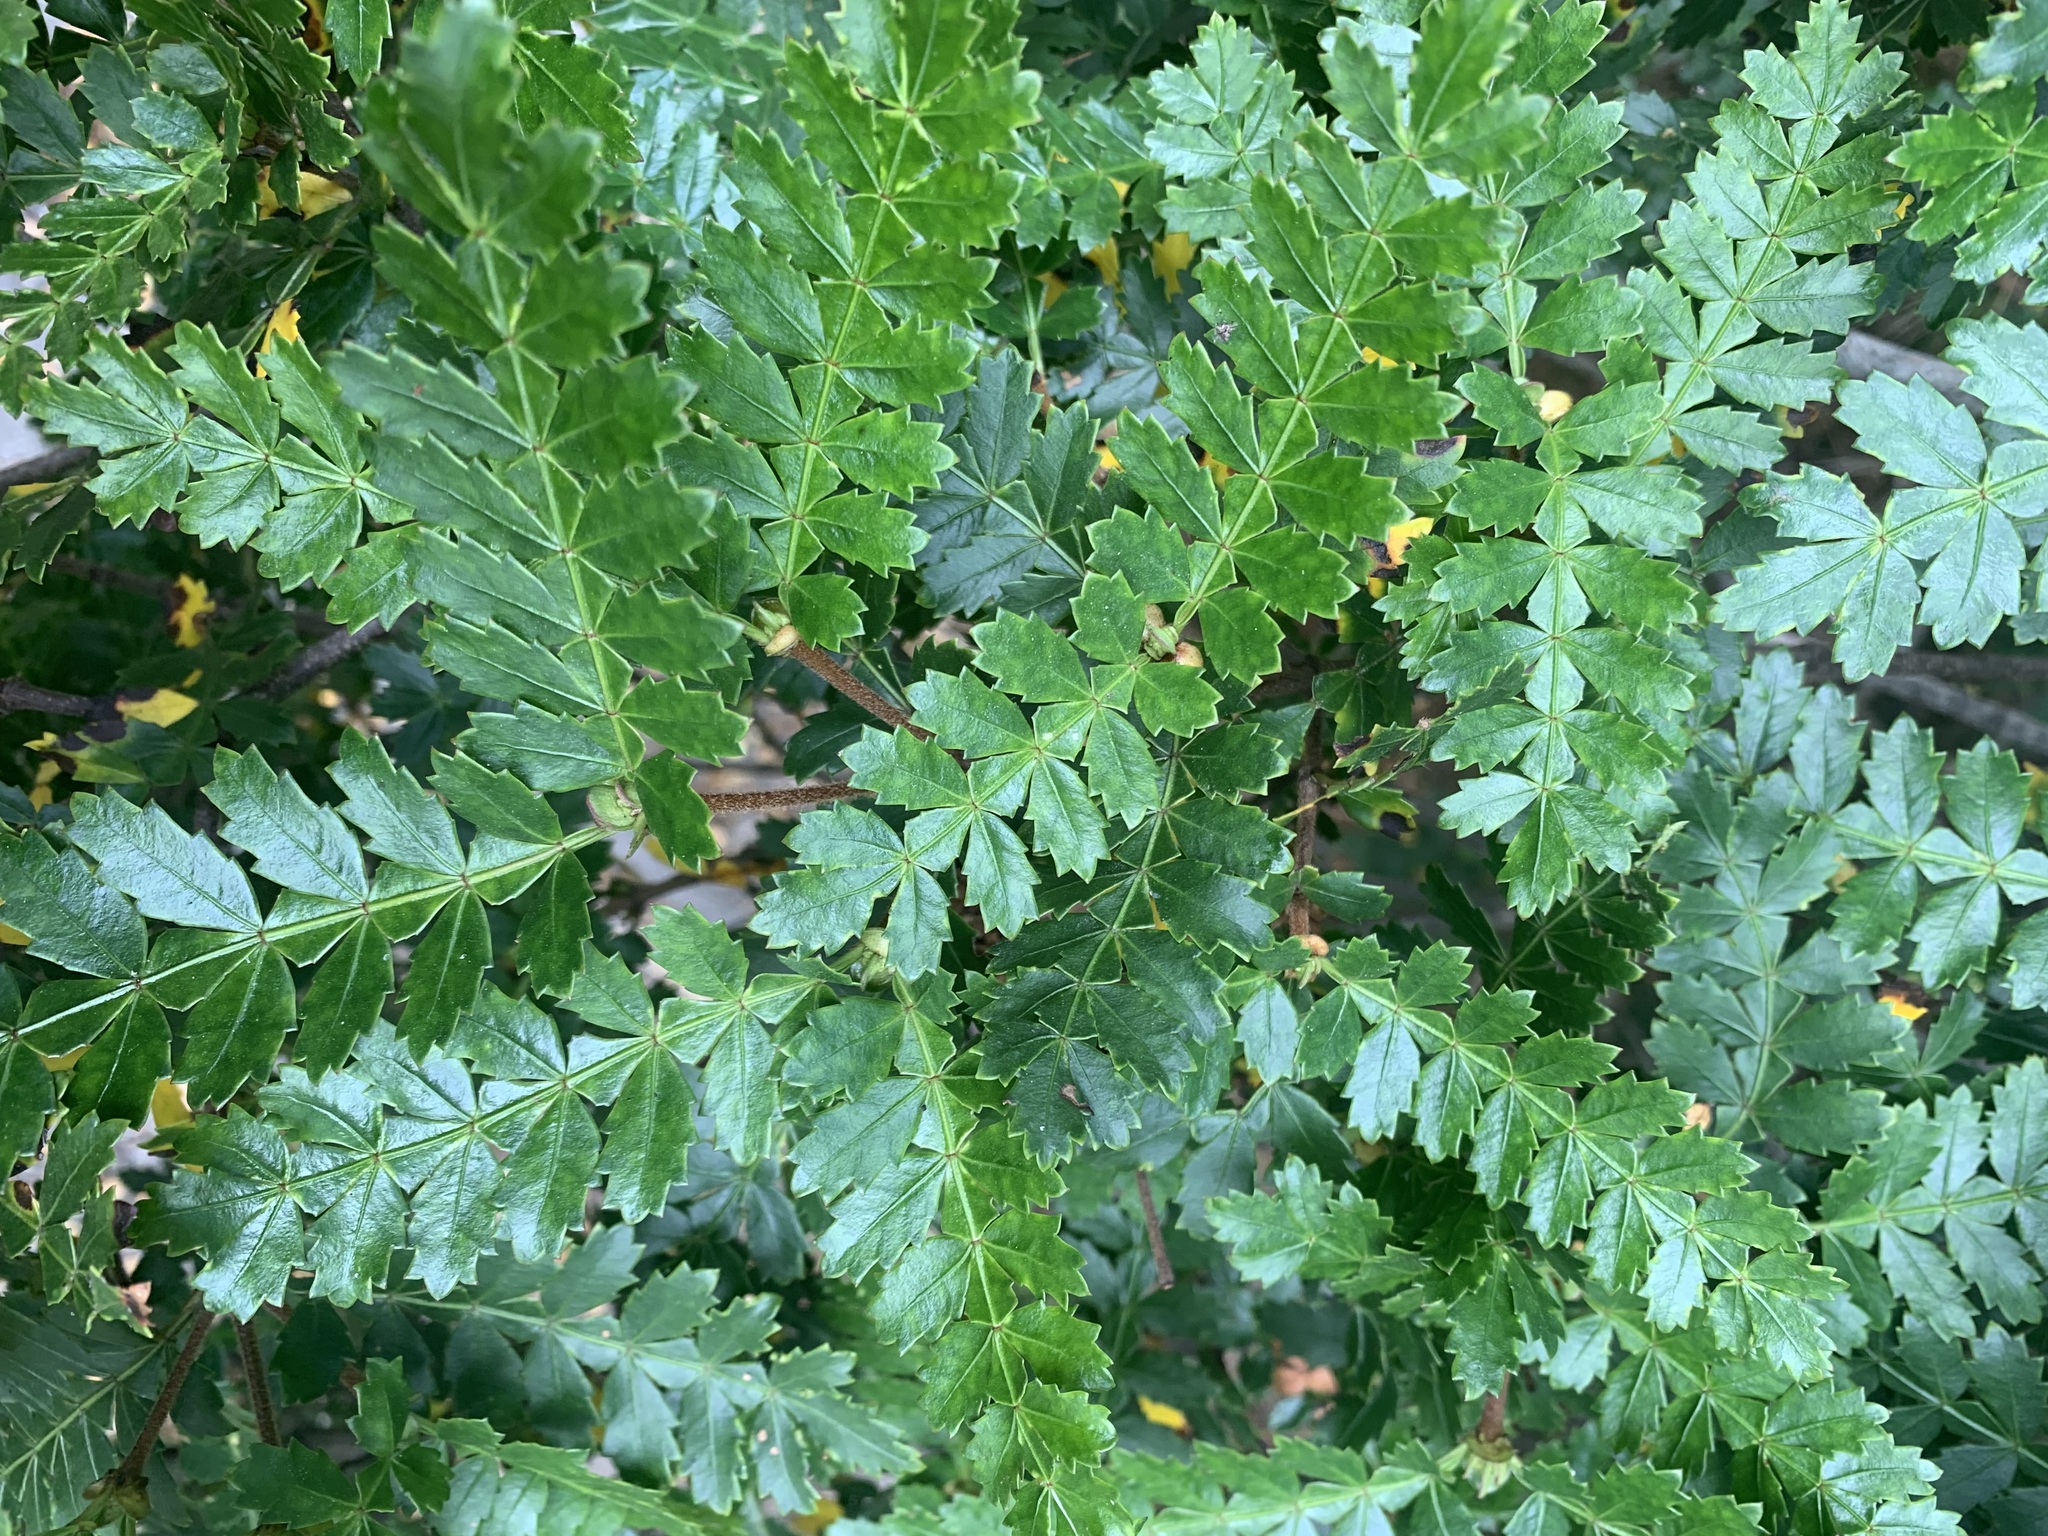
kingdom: Plantae
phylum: Tracheophyta
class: Magnoliopsida
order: Oxalidales
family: Cunoniaceae
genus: Weinmannia
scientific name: Weinmannia trichosperma
